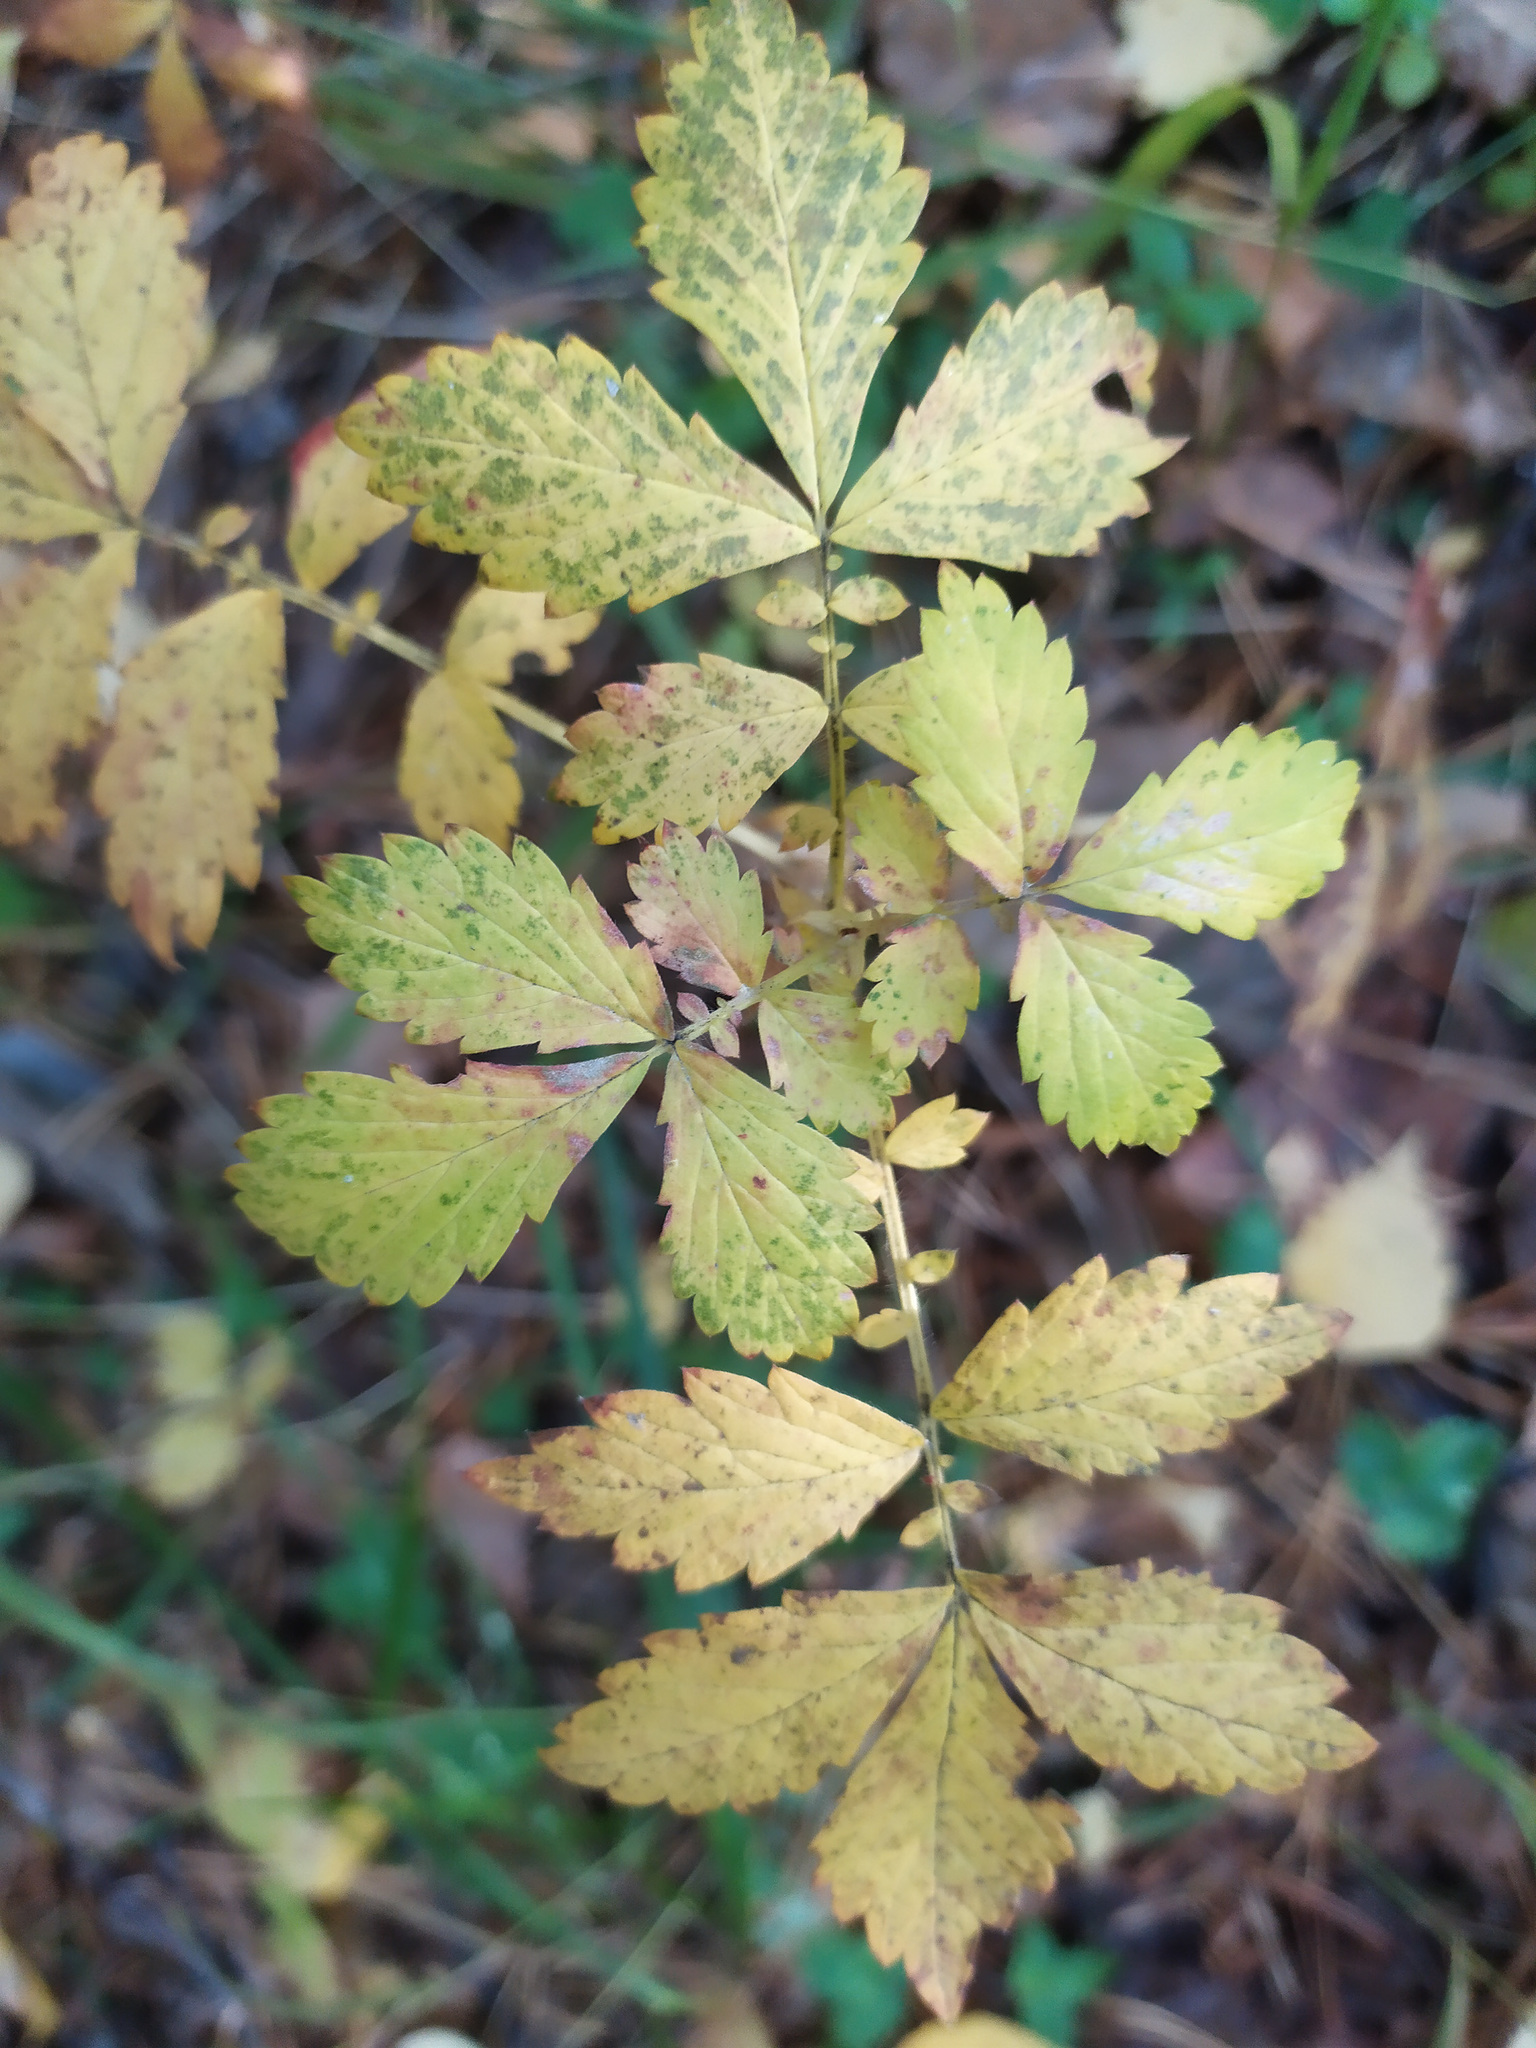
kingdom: Plantae
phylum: Tracheophyta
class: Magnoliopsida
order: Rosales
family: Rosaceae
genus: Agrimonia
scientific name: Agrimonia pilosa
